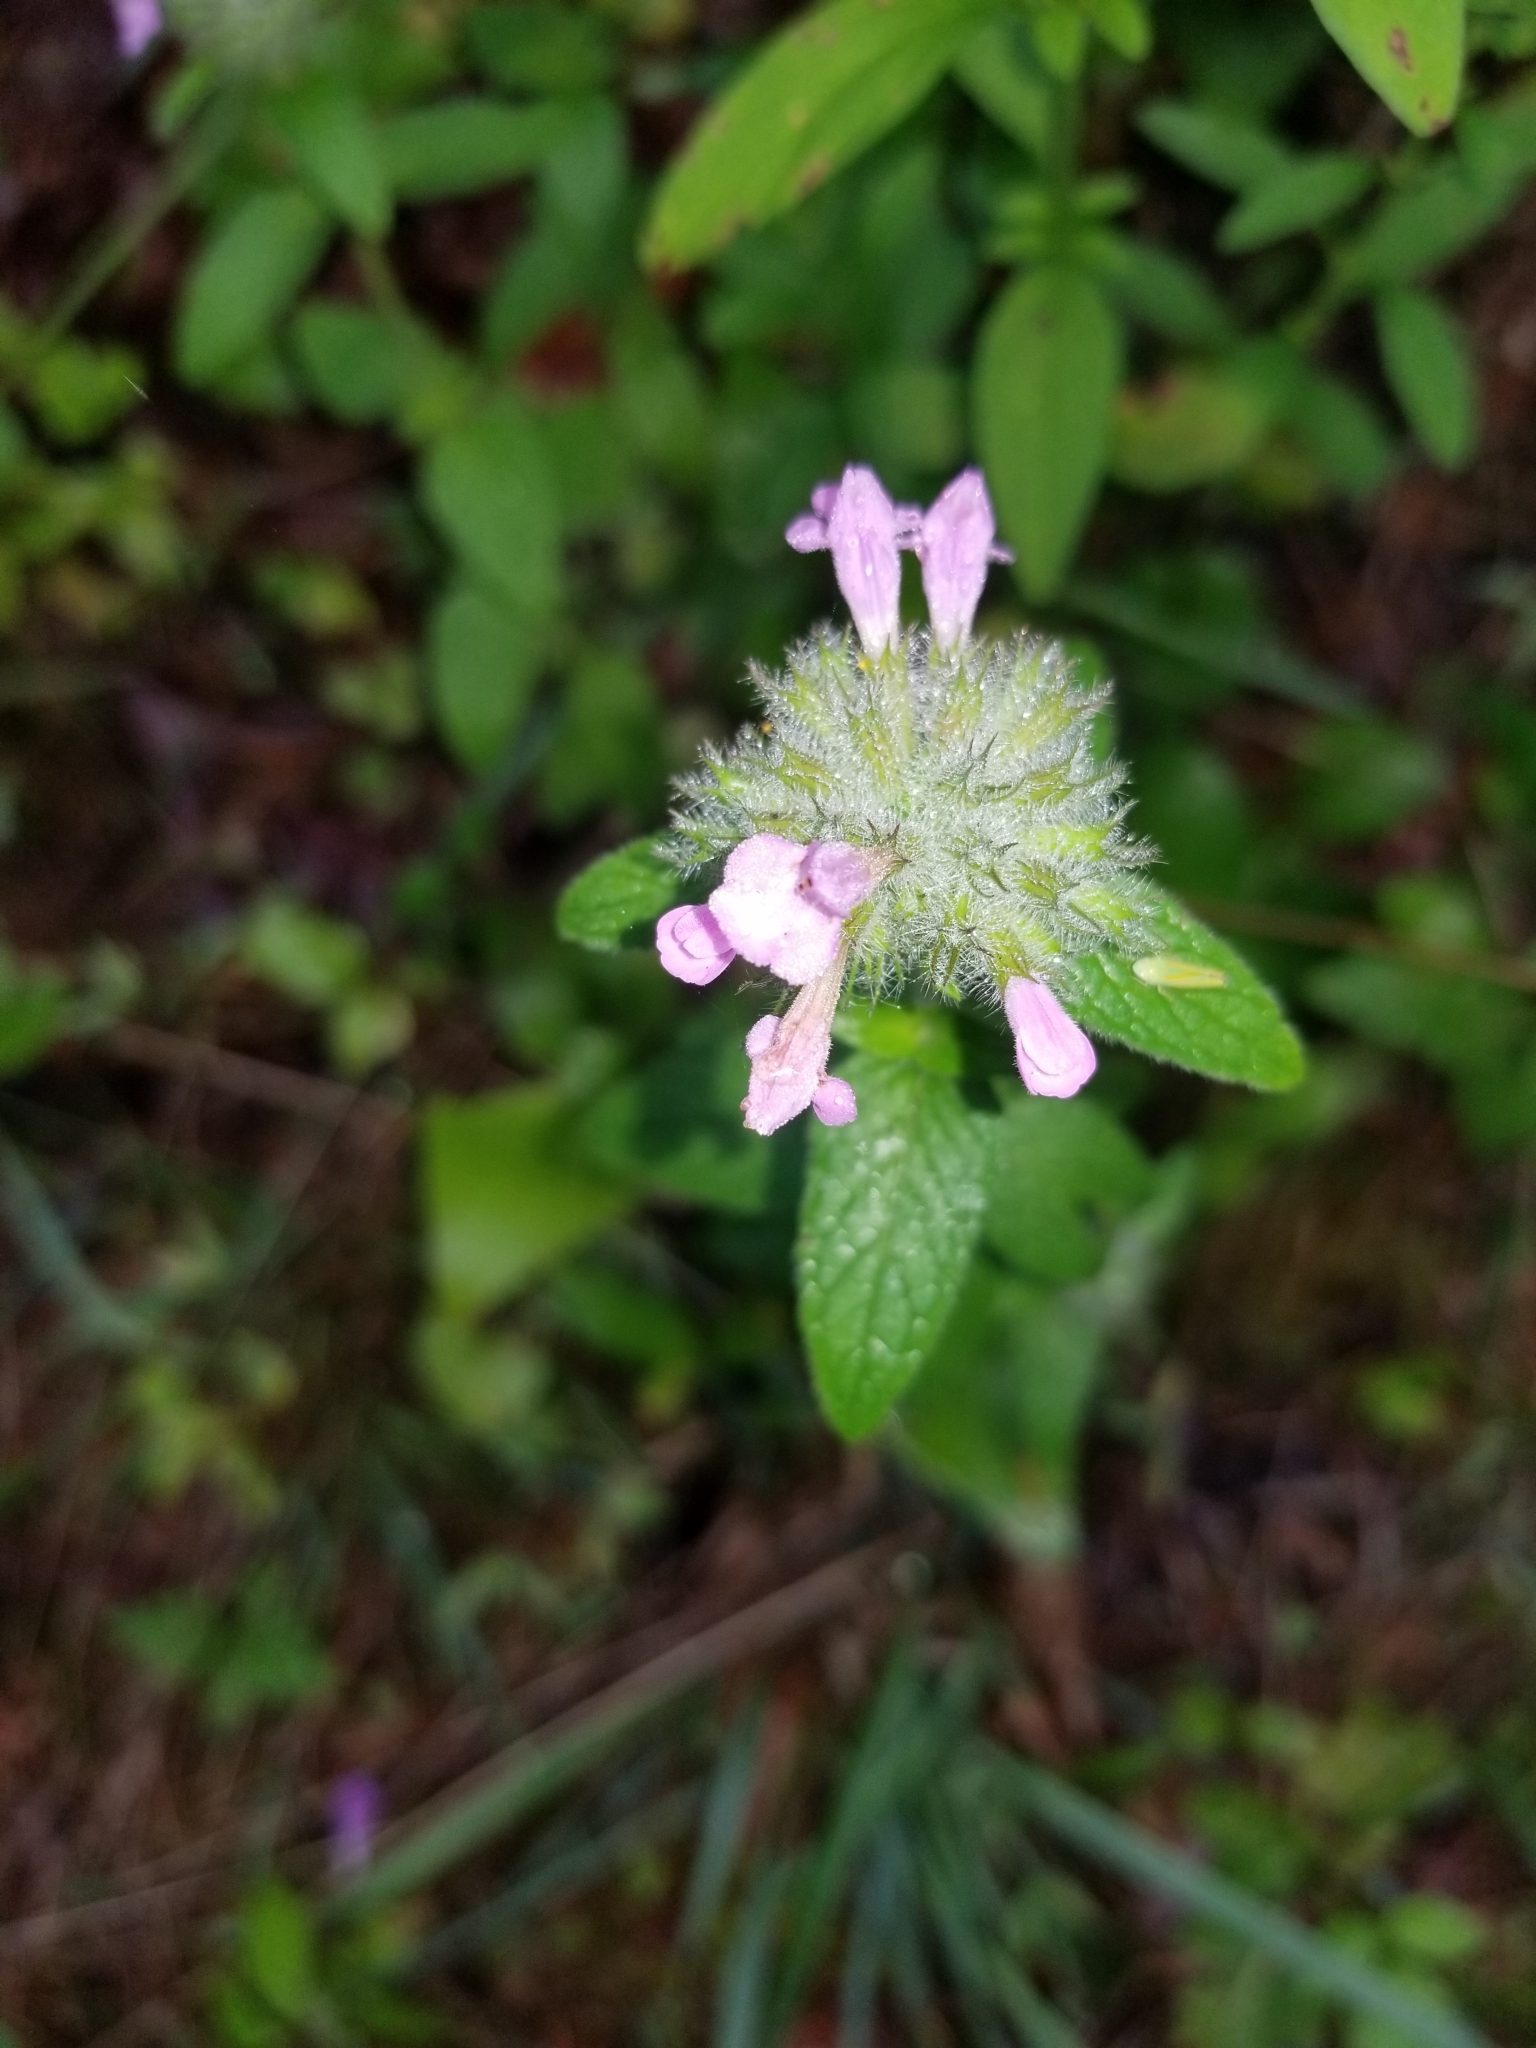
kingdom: Plantae
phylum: Tracheophyta
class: Magnoliopsida
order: Lamiales
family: Lamiaceae
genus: Clinopodium
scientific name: Clinopodium vulgare
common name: Wild basil
